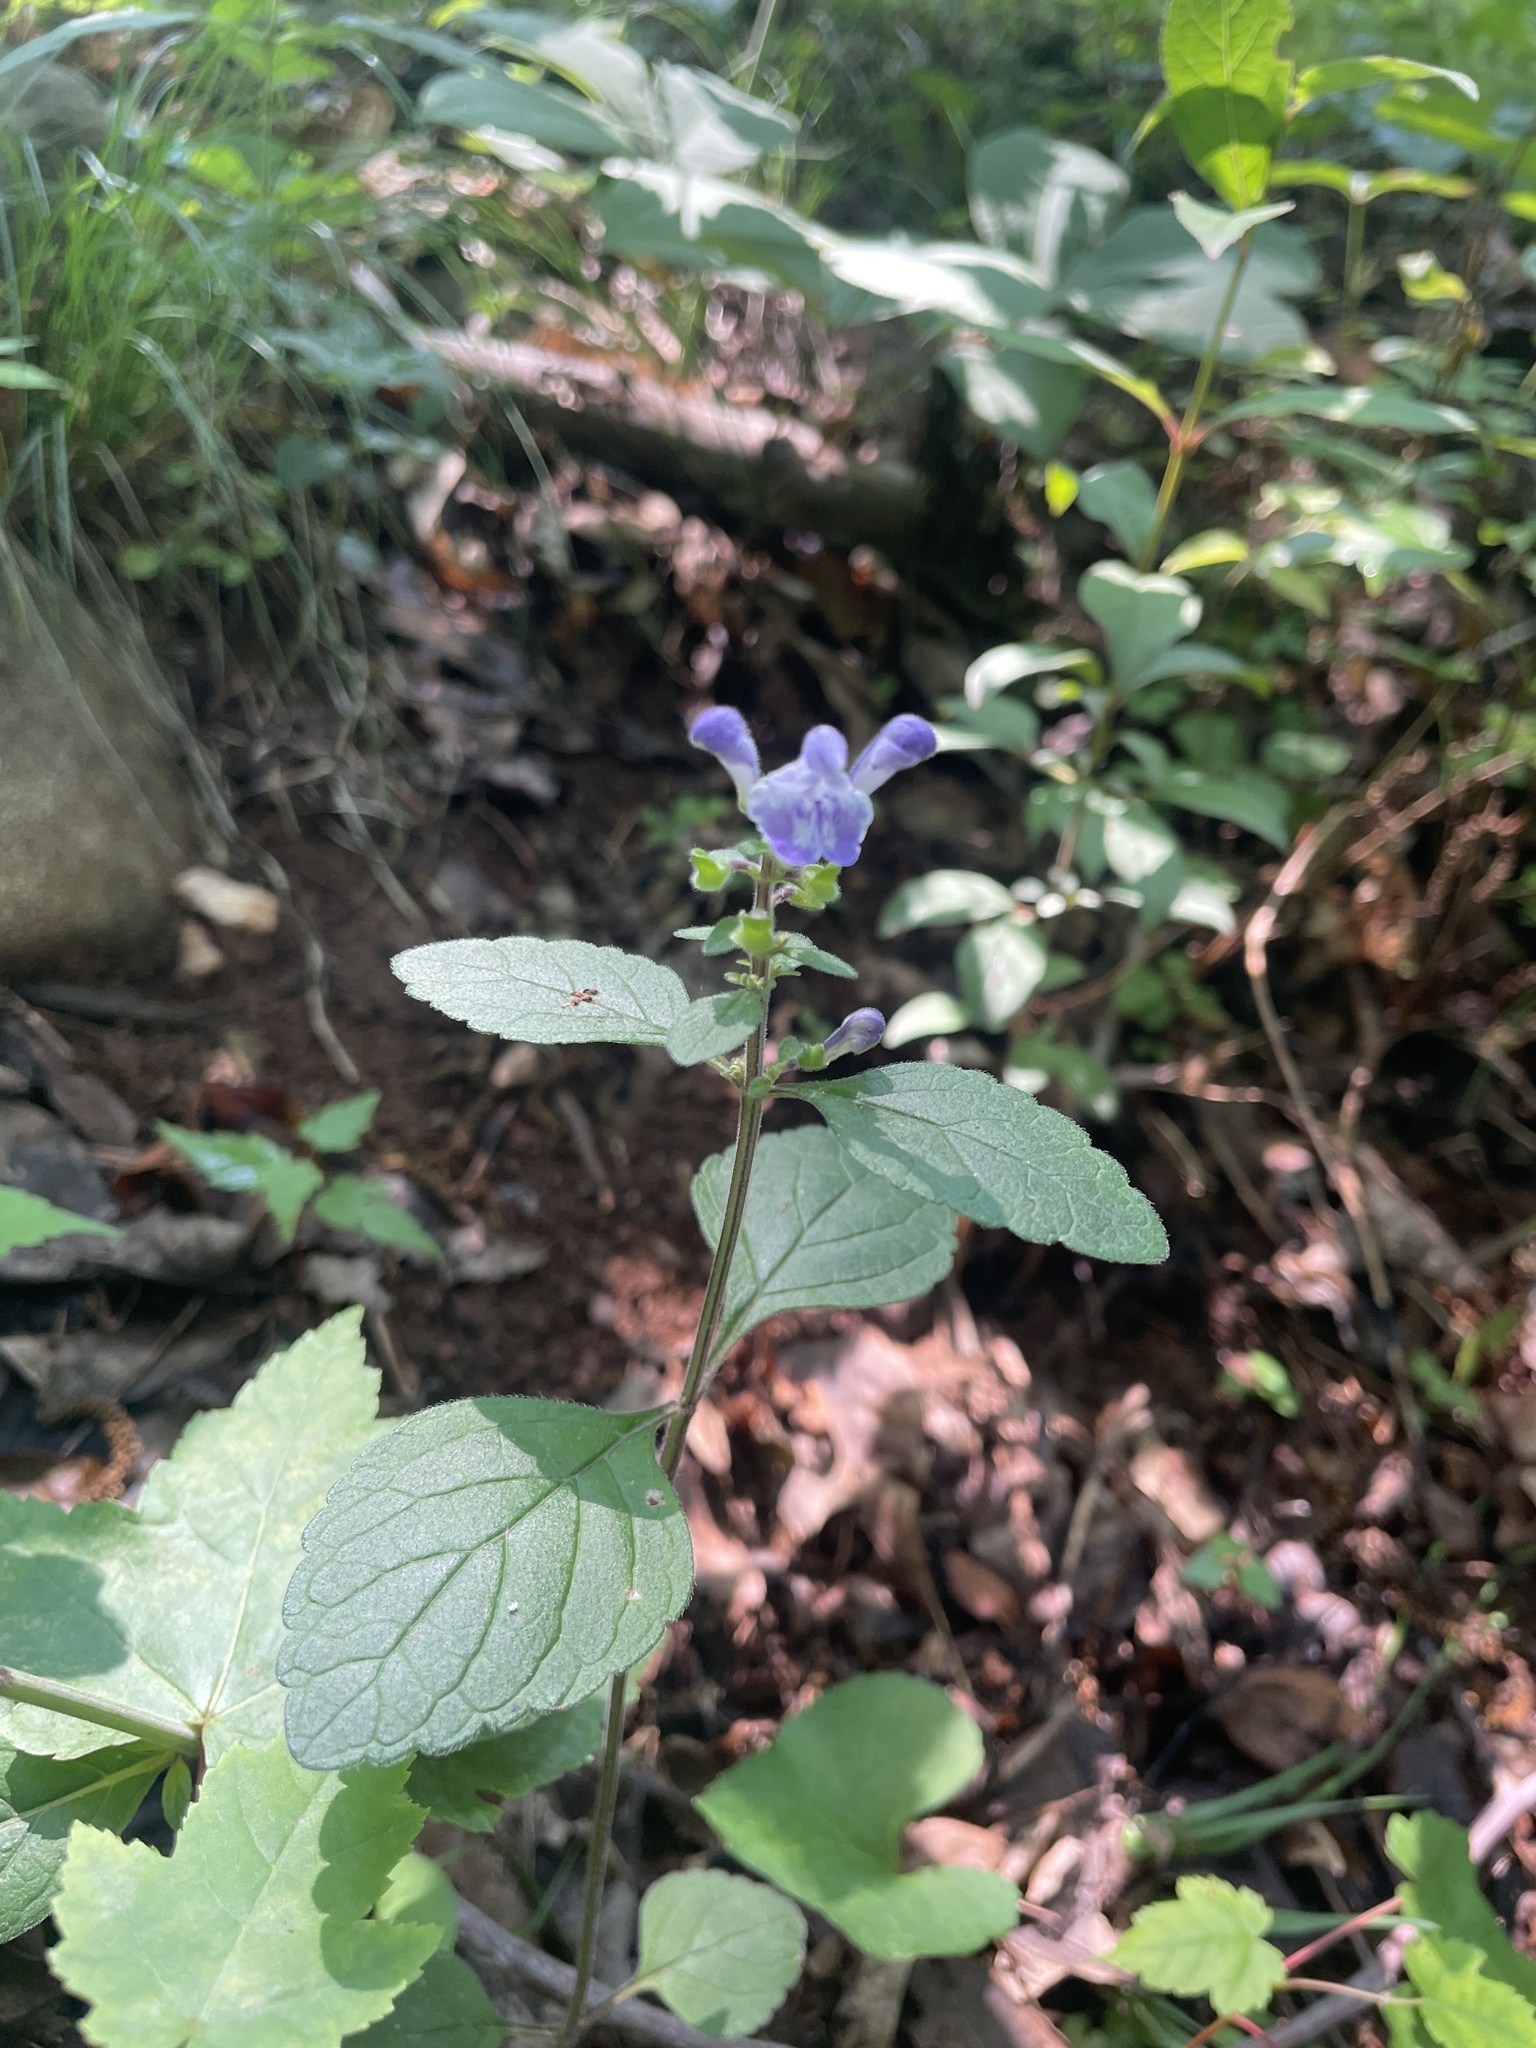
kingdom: Plantae
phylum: Tracheophyta
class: Magnoliopsida
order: Lamiales
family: Lamiaceae
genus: Scutellaria
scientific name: Scutellaria elliptica
